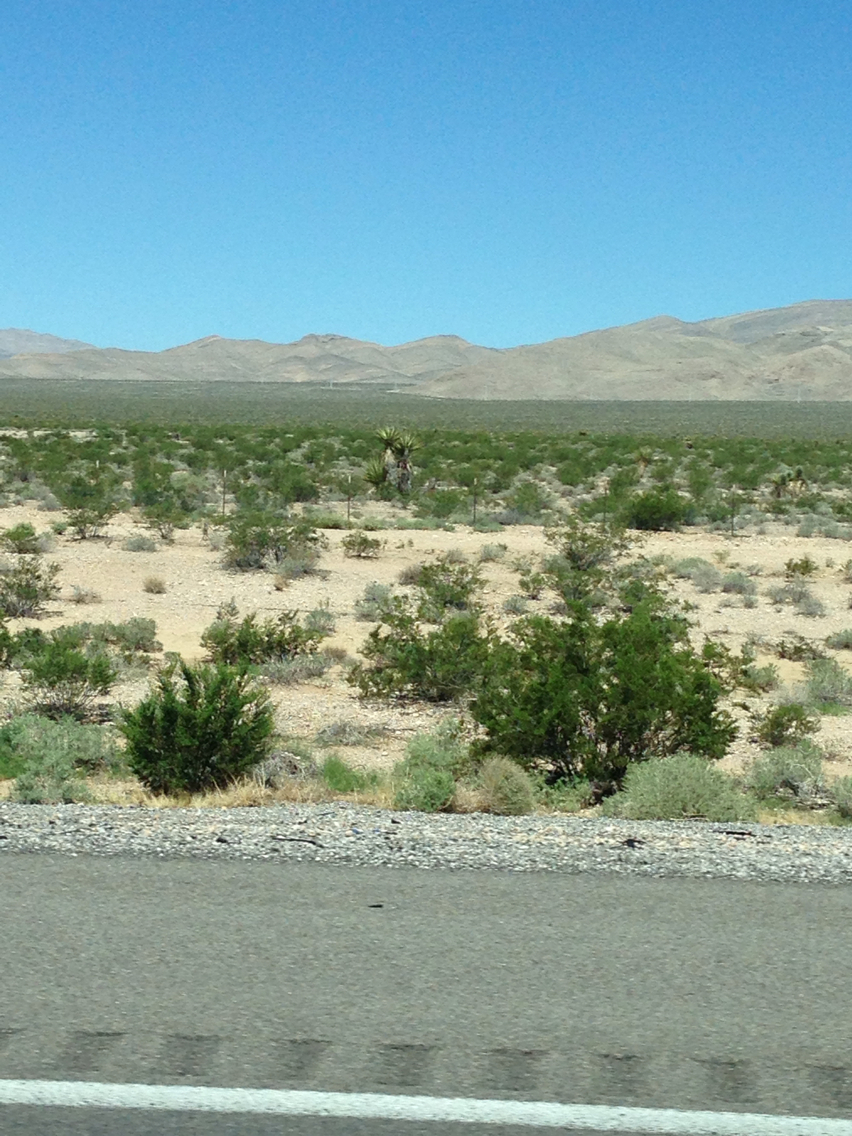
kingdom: Plantae
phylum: Tracheophyta
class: Liliopsida
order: Asparagales
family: Asparagaceae
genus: Yucca
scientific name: Yucca schidigera
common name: Mojave yucca
